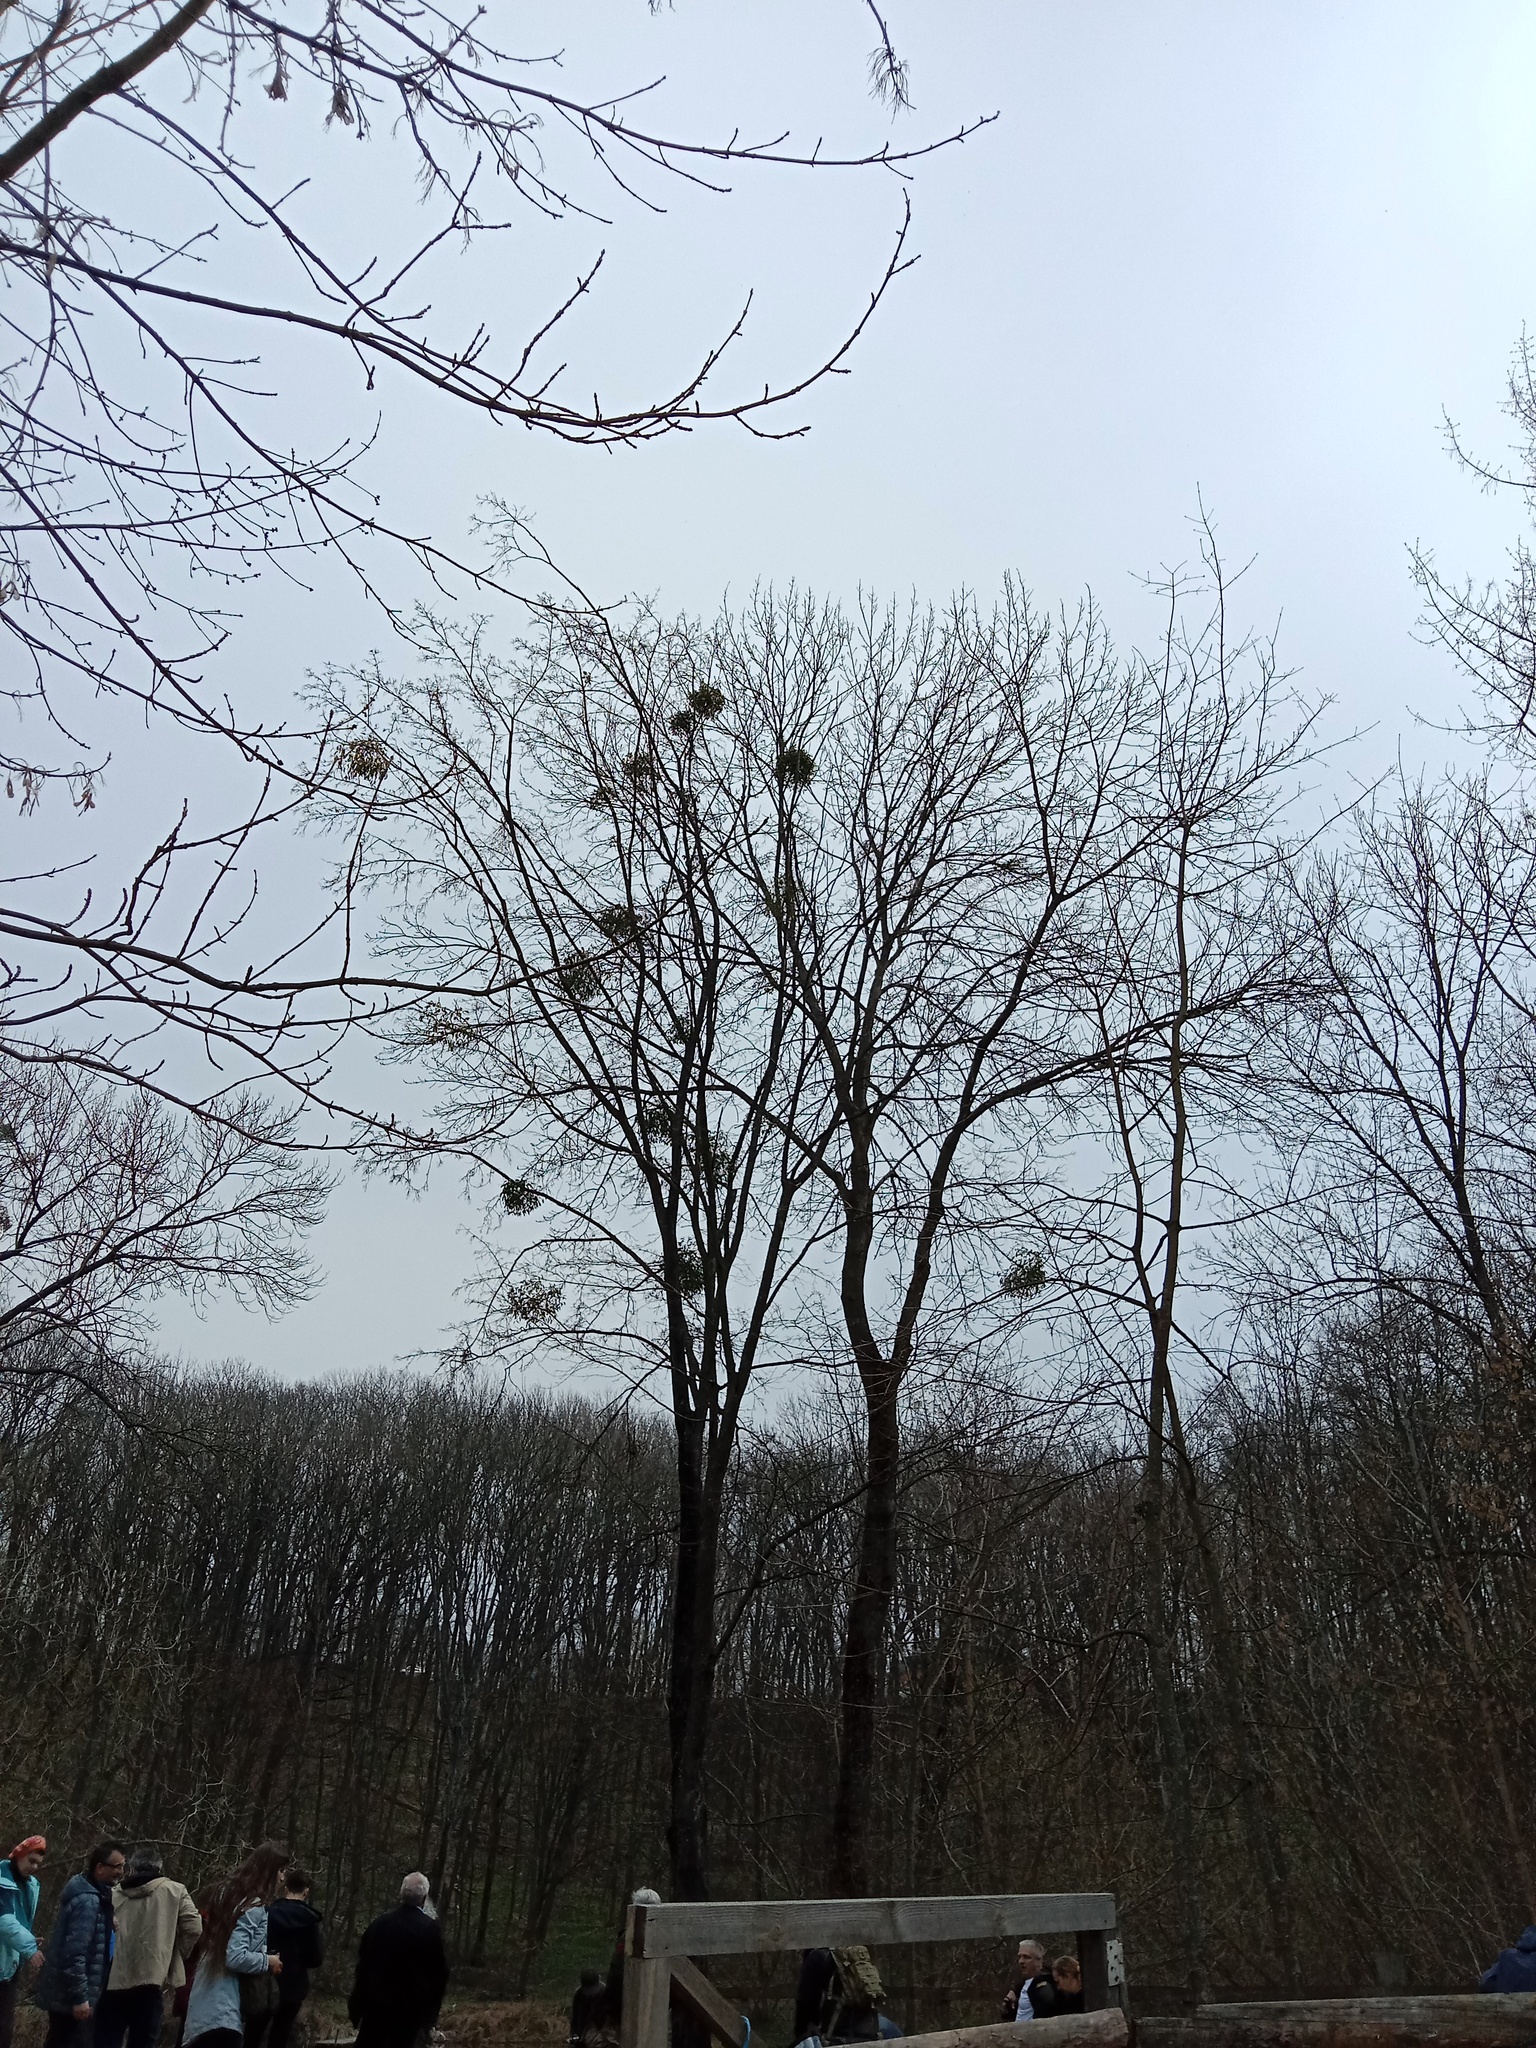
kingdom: Plantae
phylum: Tracheophyta
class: Magnoliopsida
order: Santalales
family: Viscaceae
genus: Viscum
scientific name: Viscum album
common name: Mistletoe
